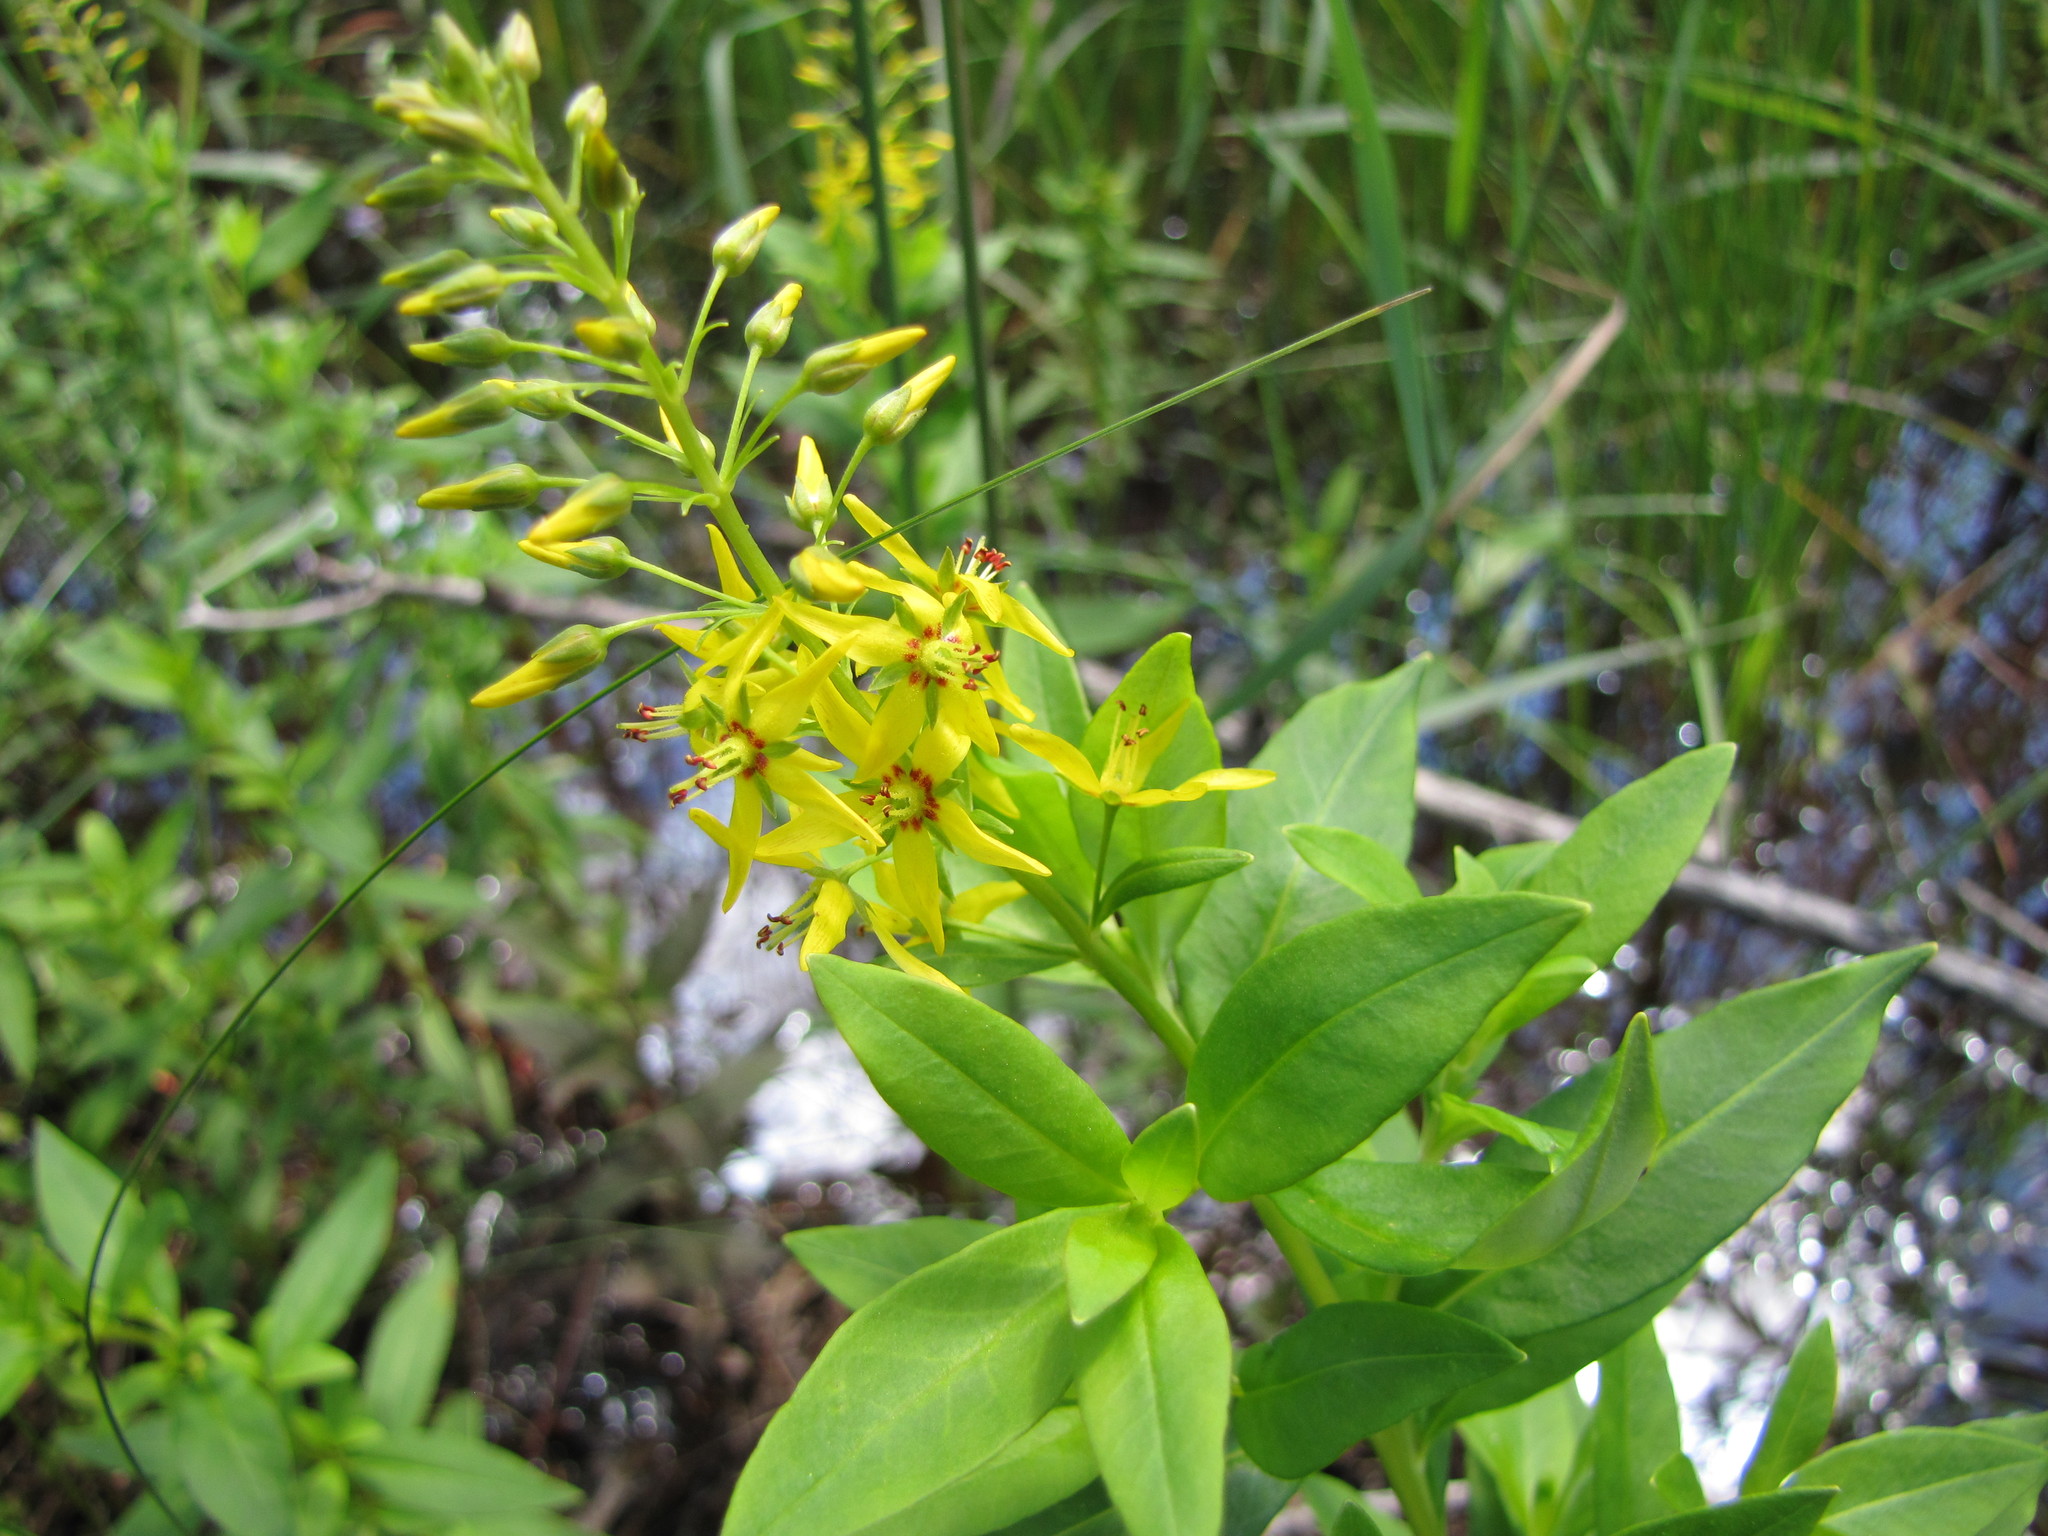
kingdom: Plantae
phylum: Tracheophyta
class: Magnoliopsida
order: Ericales
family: Primulaceae
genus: Lysimachia
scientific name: Lysimachia terrestris
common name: Lake loosestrife
